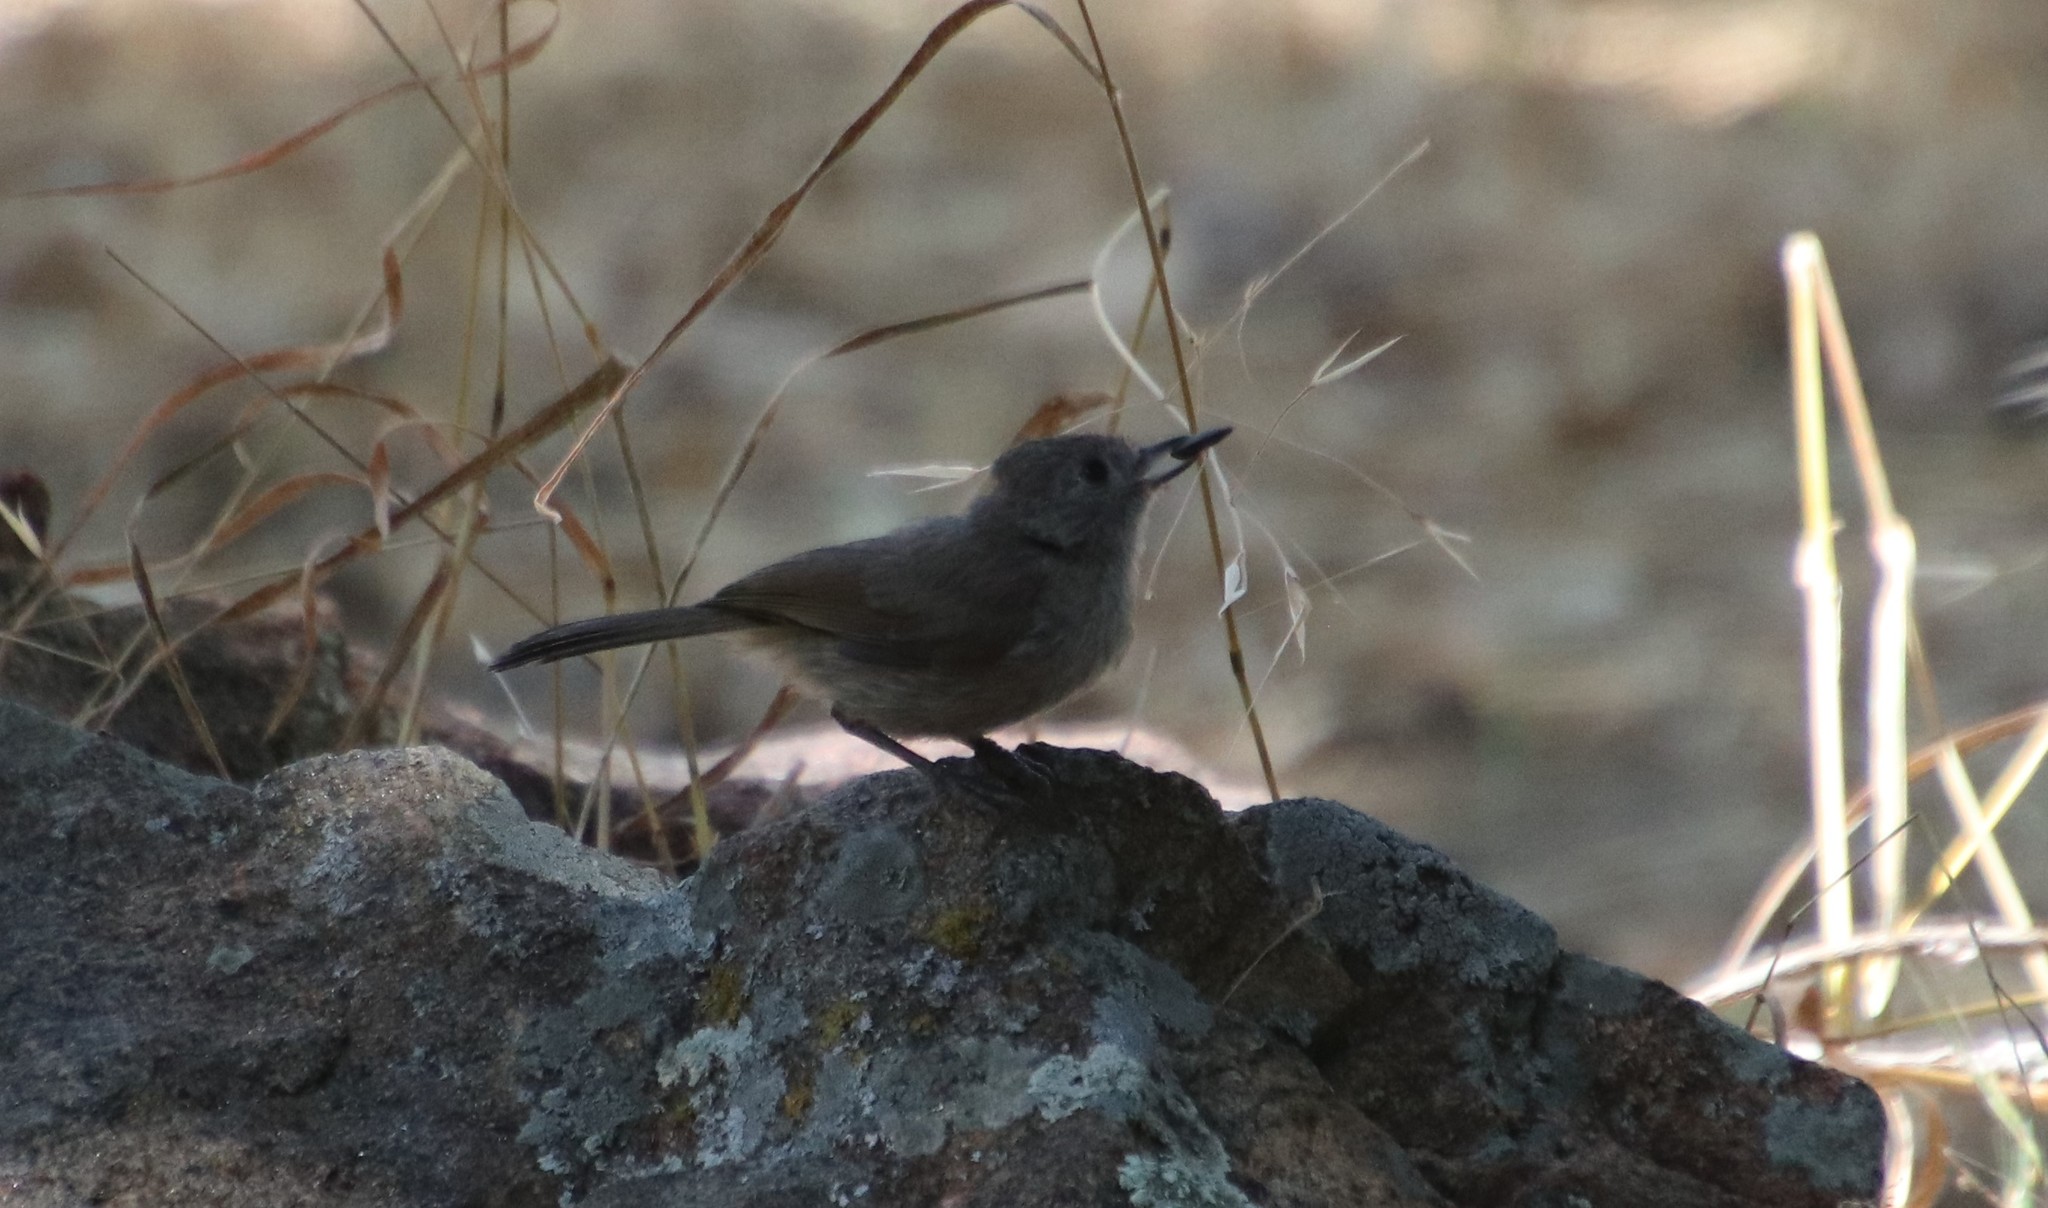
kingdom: Animalia
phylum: Chordata
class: Aves
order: Passeriformes
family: Paridae
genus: Baeolophus
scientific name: Baeolophus inornatus
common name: Oak titmouse
